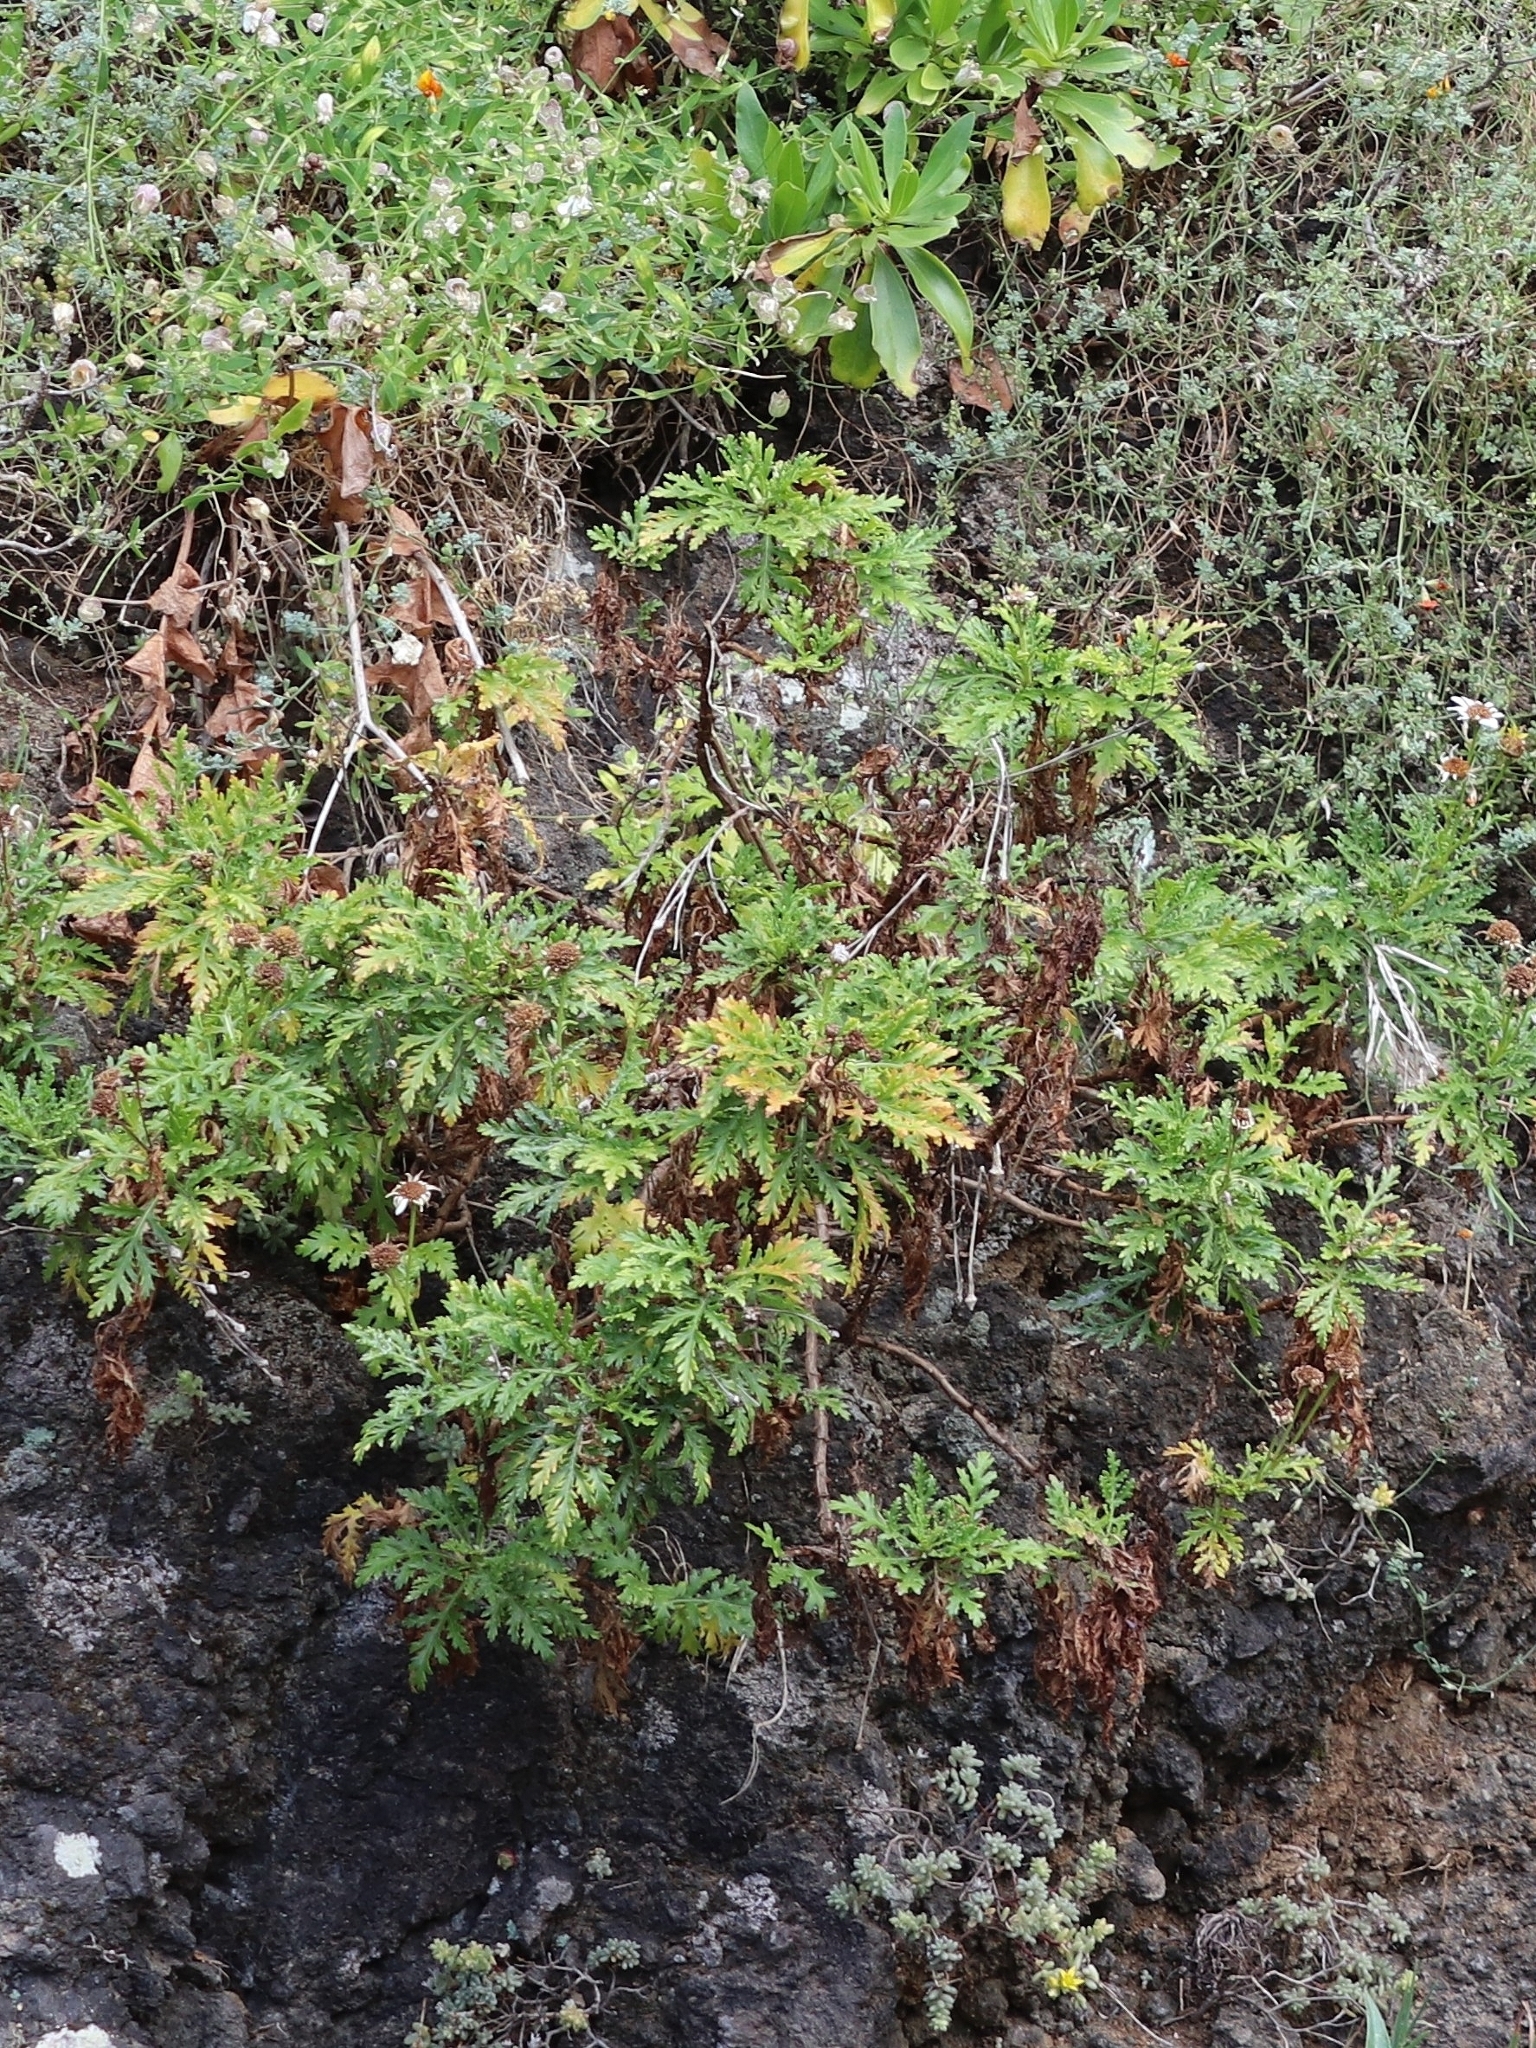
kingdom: Plantae
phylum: Tracheophyta
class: Magnoliopsida
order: Asterales
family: Asteraceae
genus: Argyranthemum
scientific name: Argyranthemum pinnatifidum
